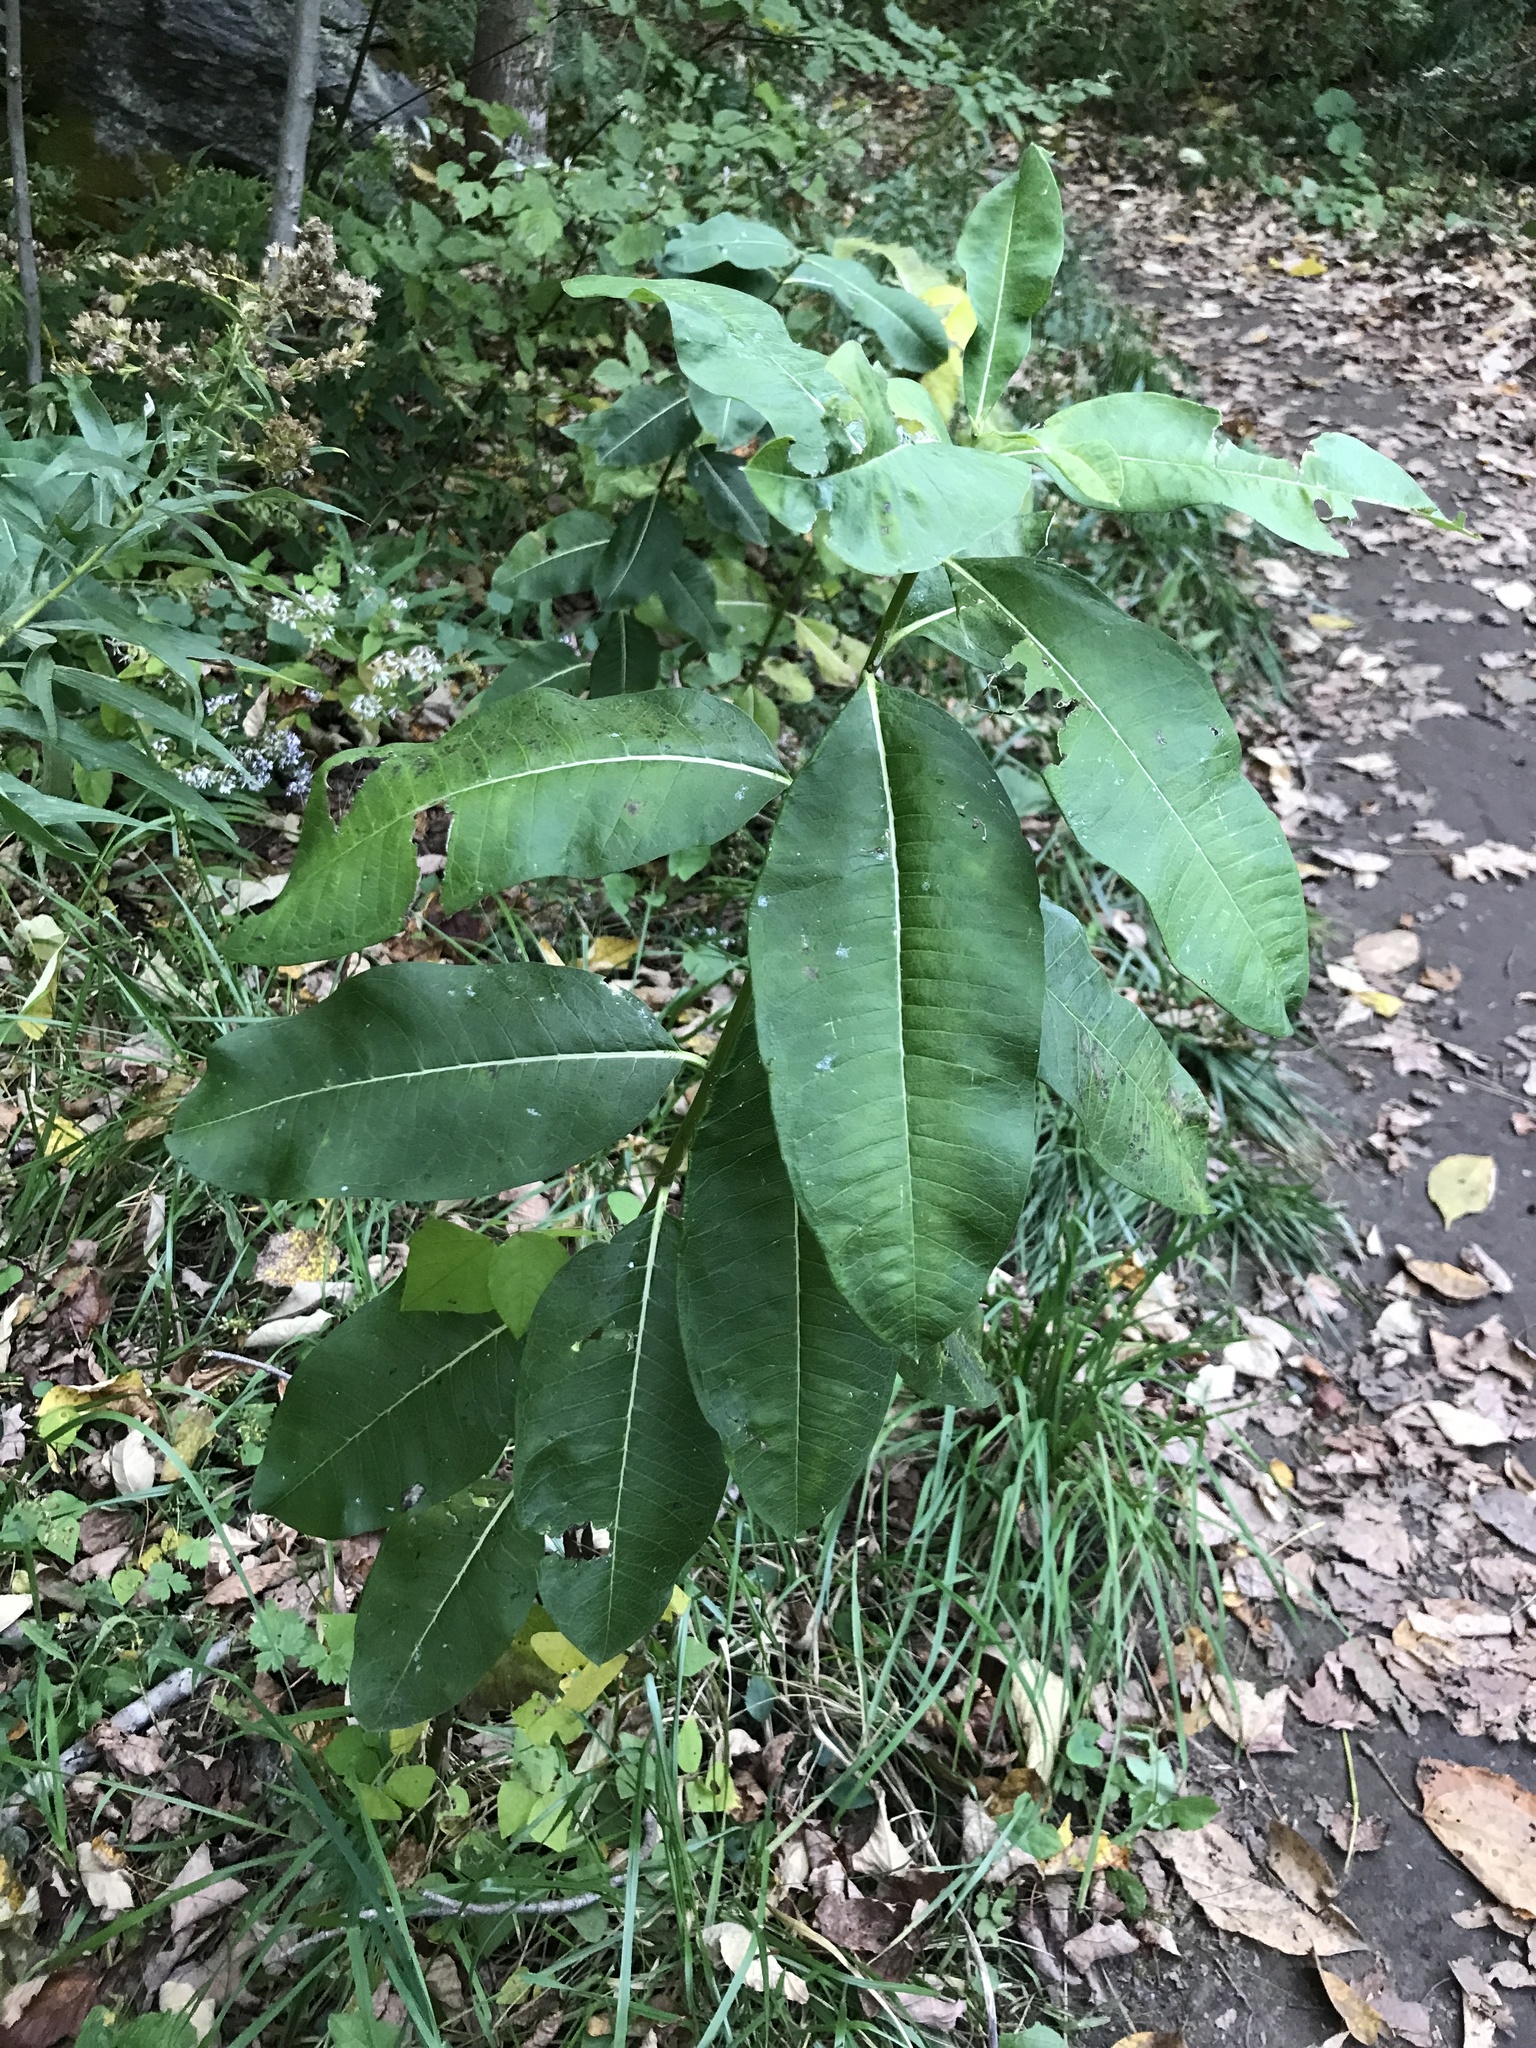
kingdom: Plantae
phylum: Tracheophyta
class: Magnoliopsida
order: Gentianales
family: Apocynaceae
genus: Asclepias
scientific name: Asclepias syriaca
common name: Common milkweed
